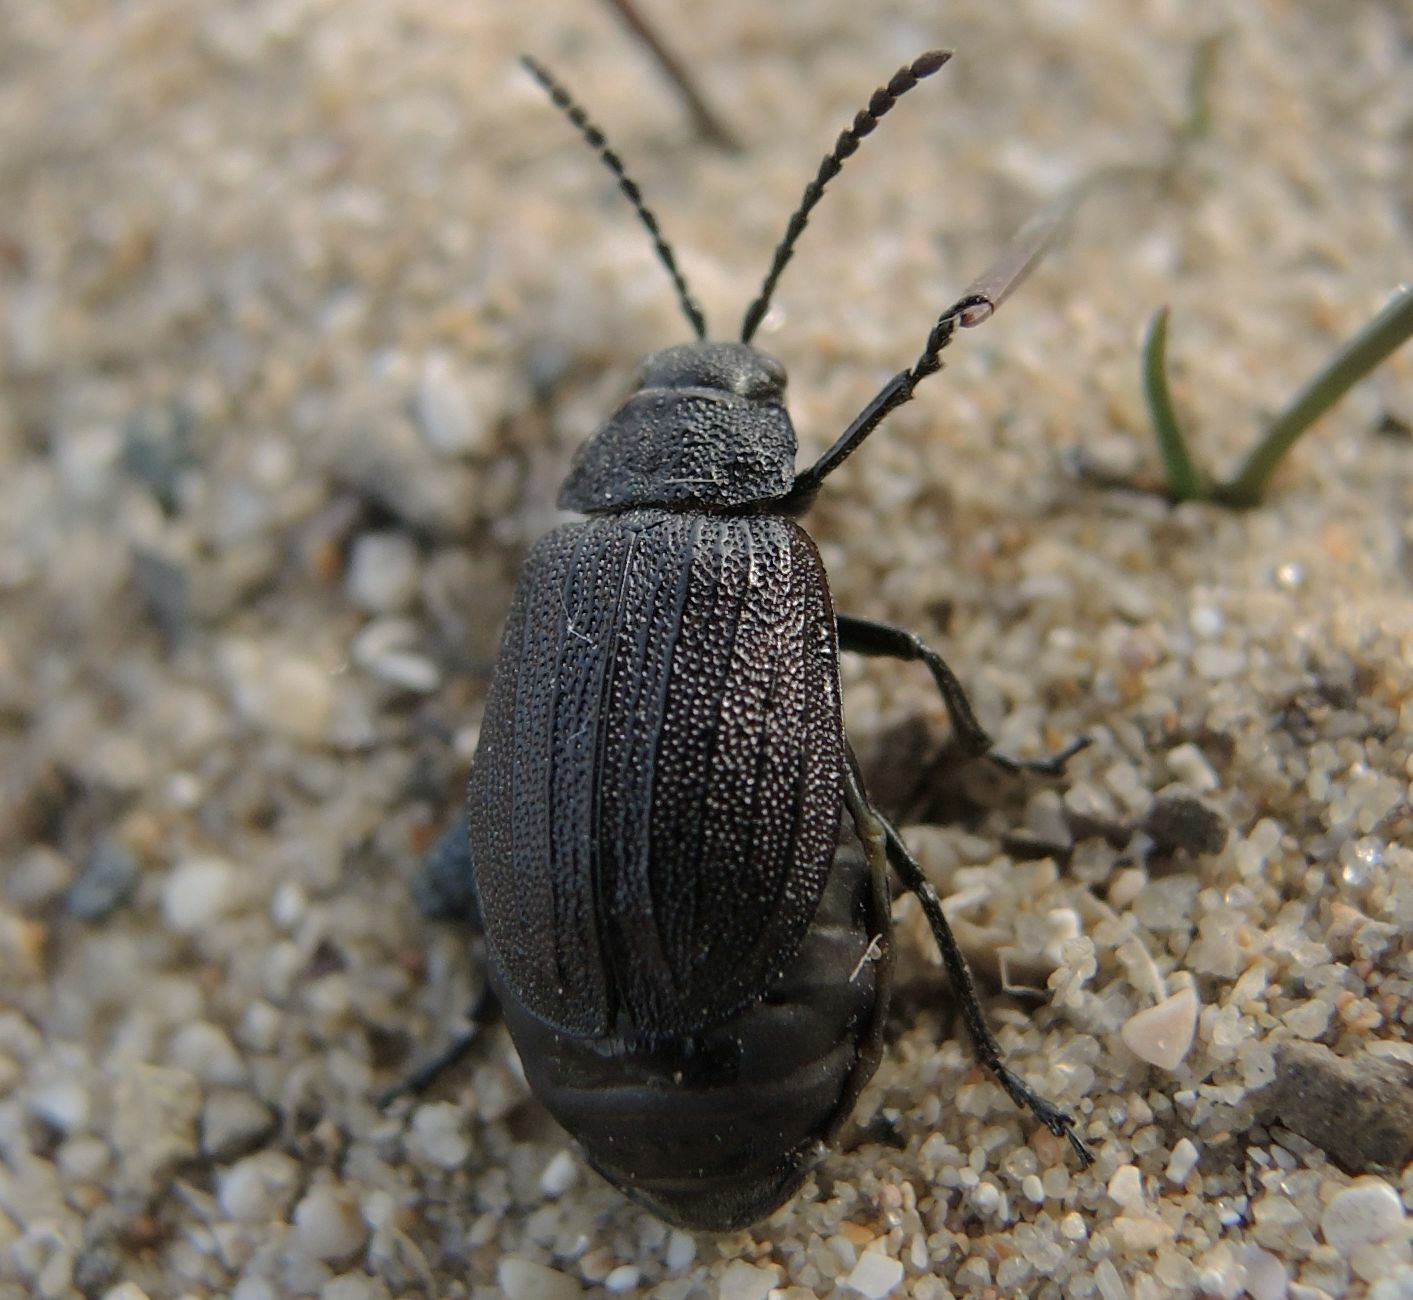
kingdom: Animalia
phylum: Arthropoda
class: Insecta
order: Coleoptera
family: Chrysomelidae
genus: Galeruca
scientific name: Galeruca pomonae
